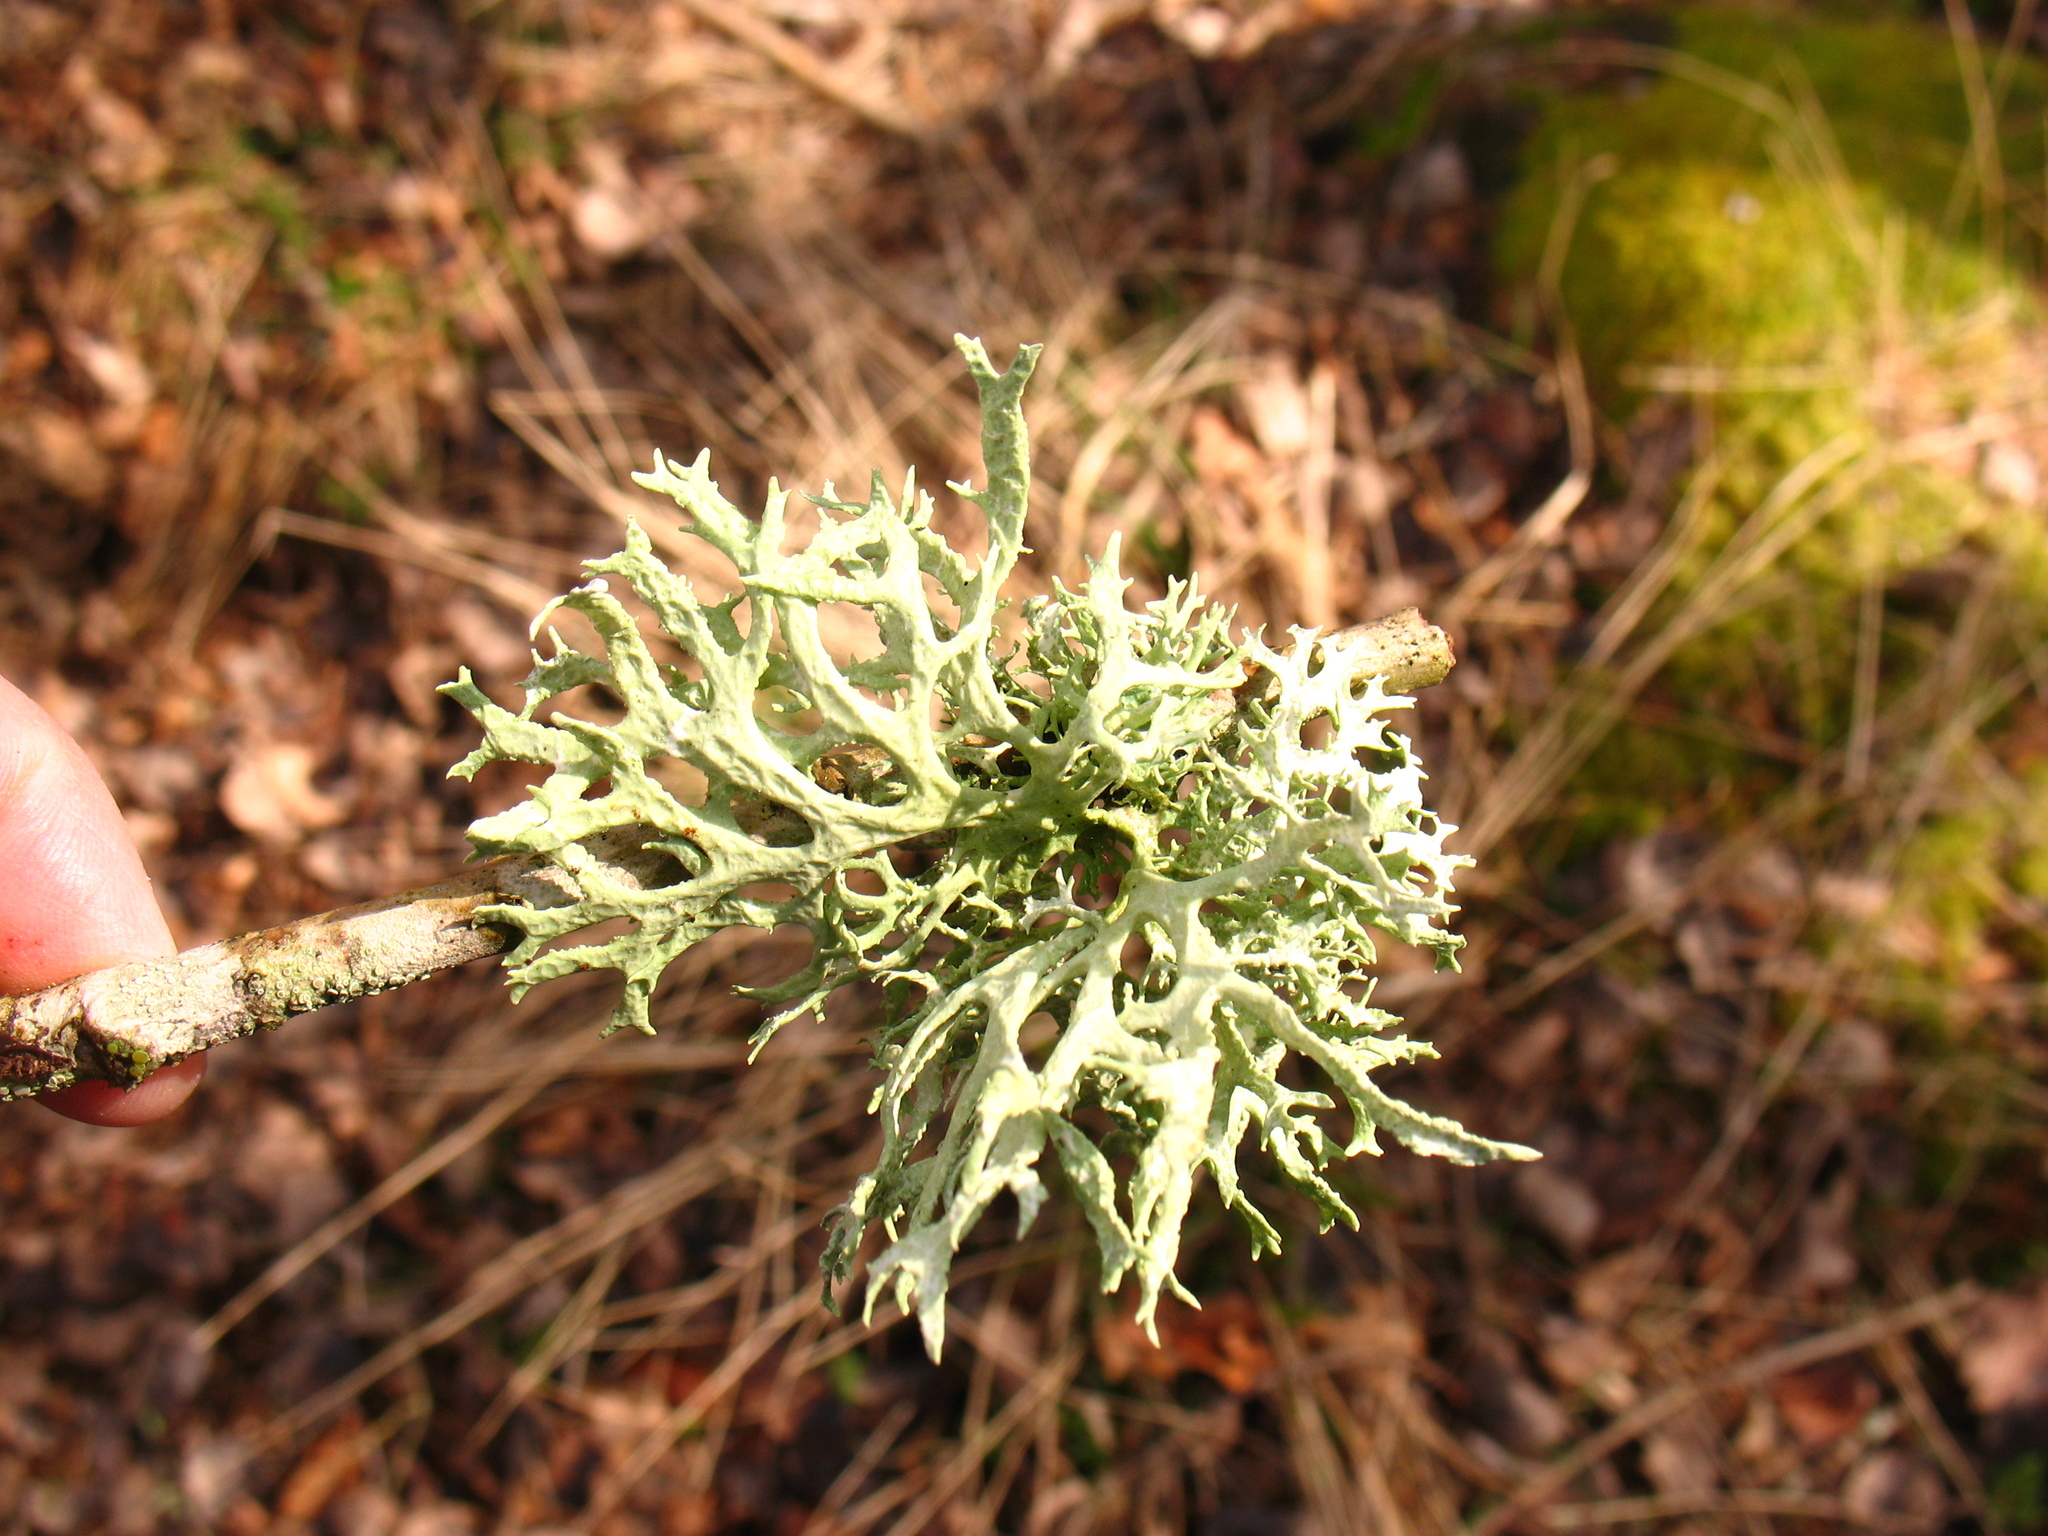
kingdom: Fungi
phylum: Ascomycota
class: Lecanoromycetes
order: Lecanorales
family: Parmeliaceae
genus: Evernia
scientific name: Evernia prunastri
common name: Oak moss
